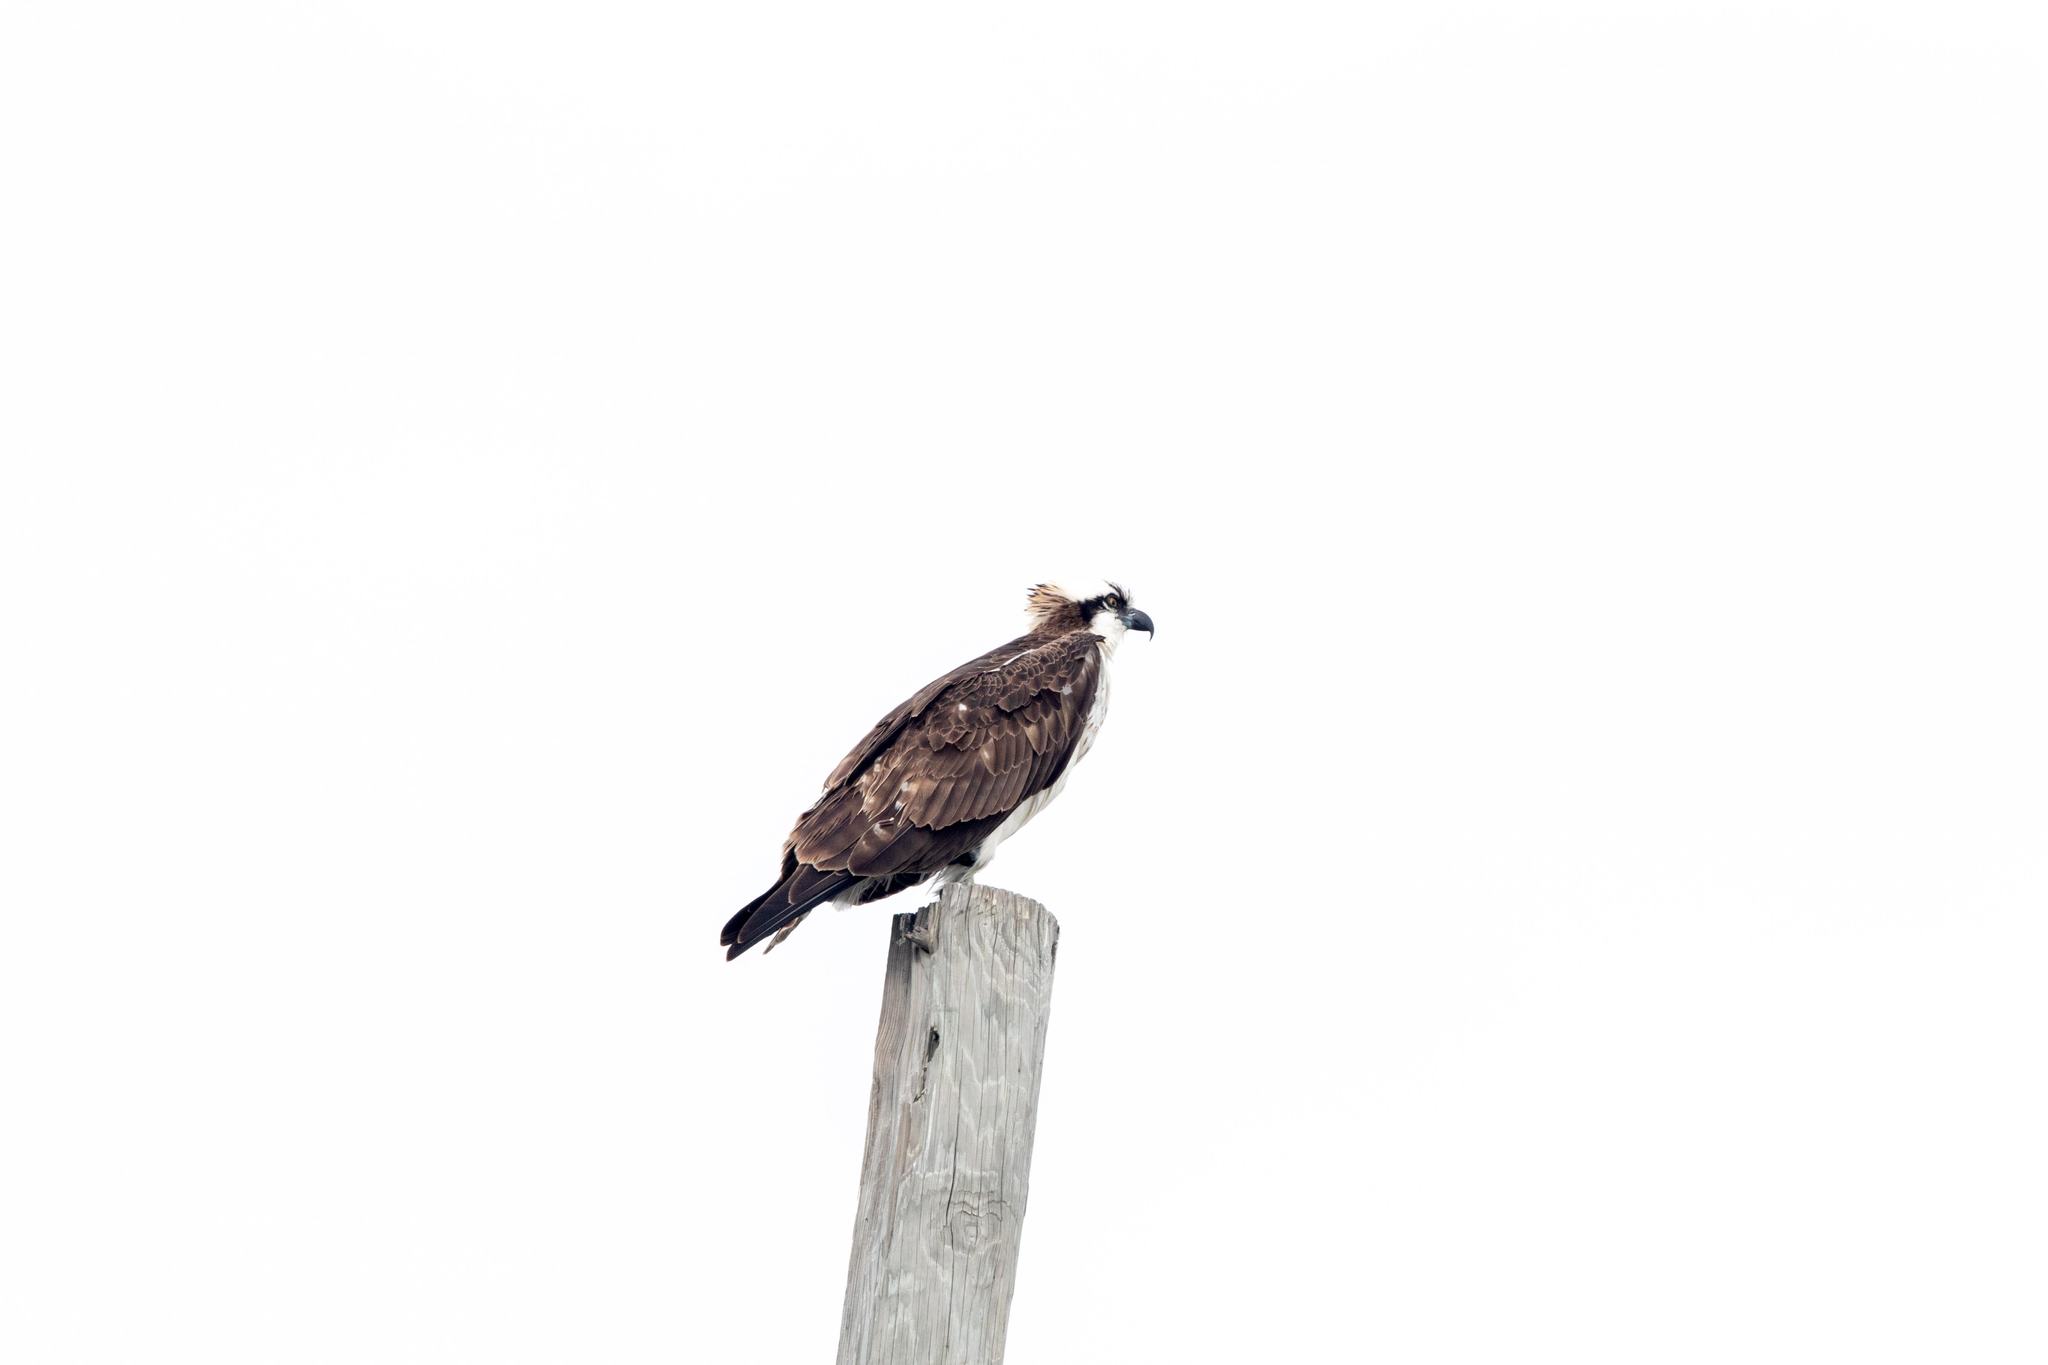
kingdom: Animalia
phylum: Chordata
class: Aves
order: Accipitriformes
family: Pandionidae
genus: Pandion
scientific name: Pandion haliaetus
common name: Osprey
